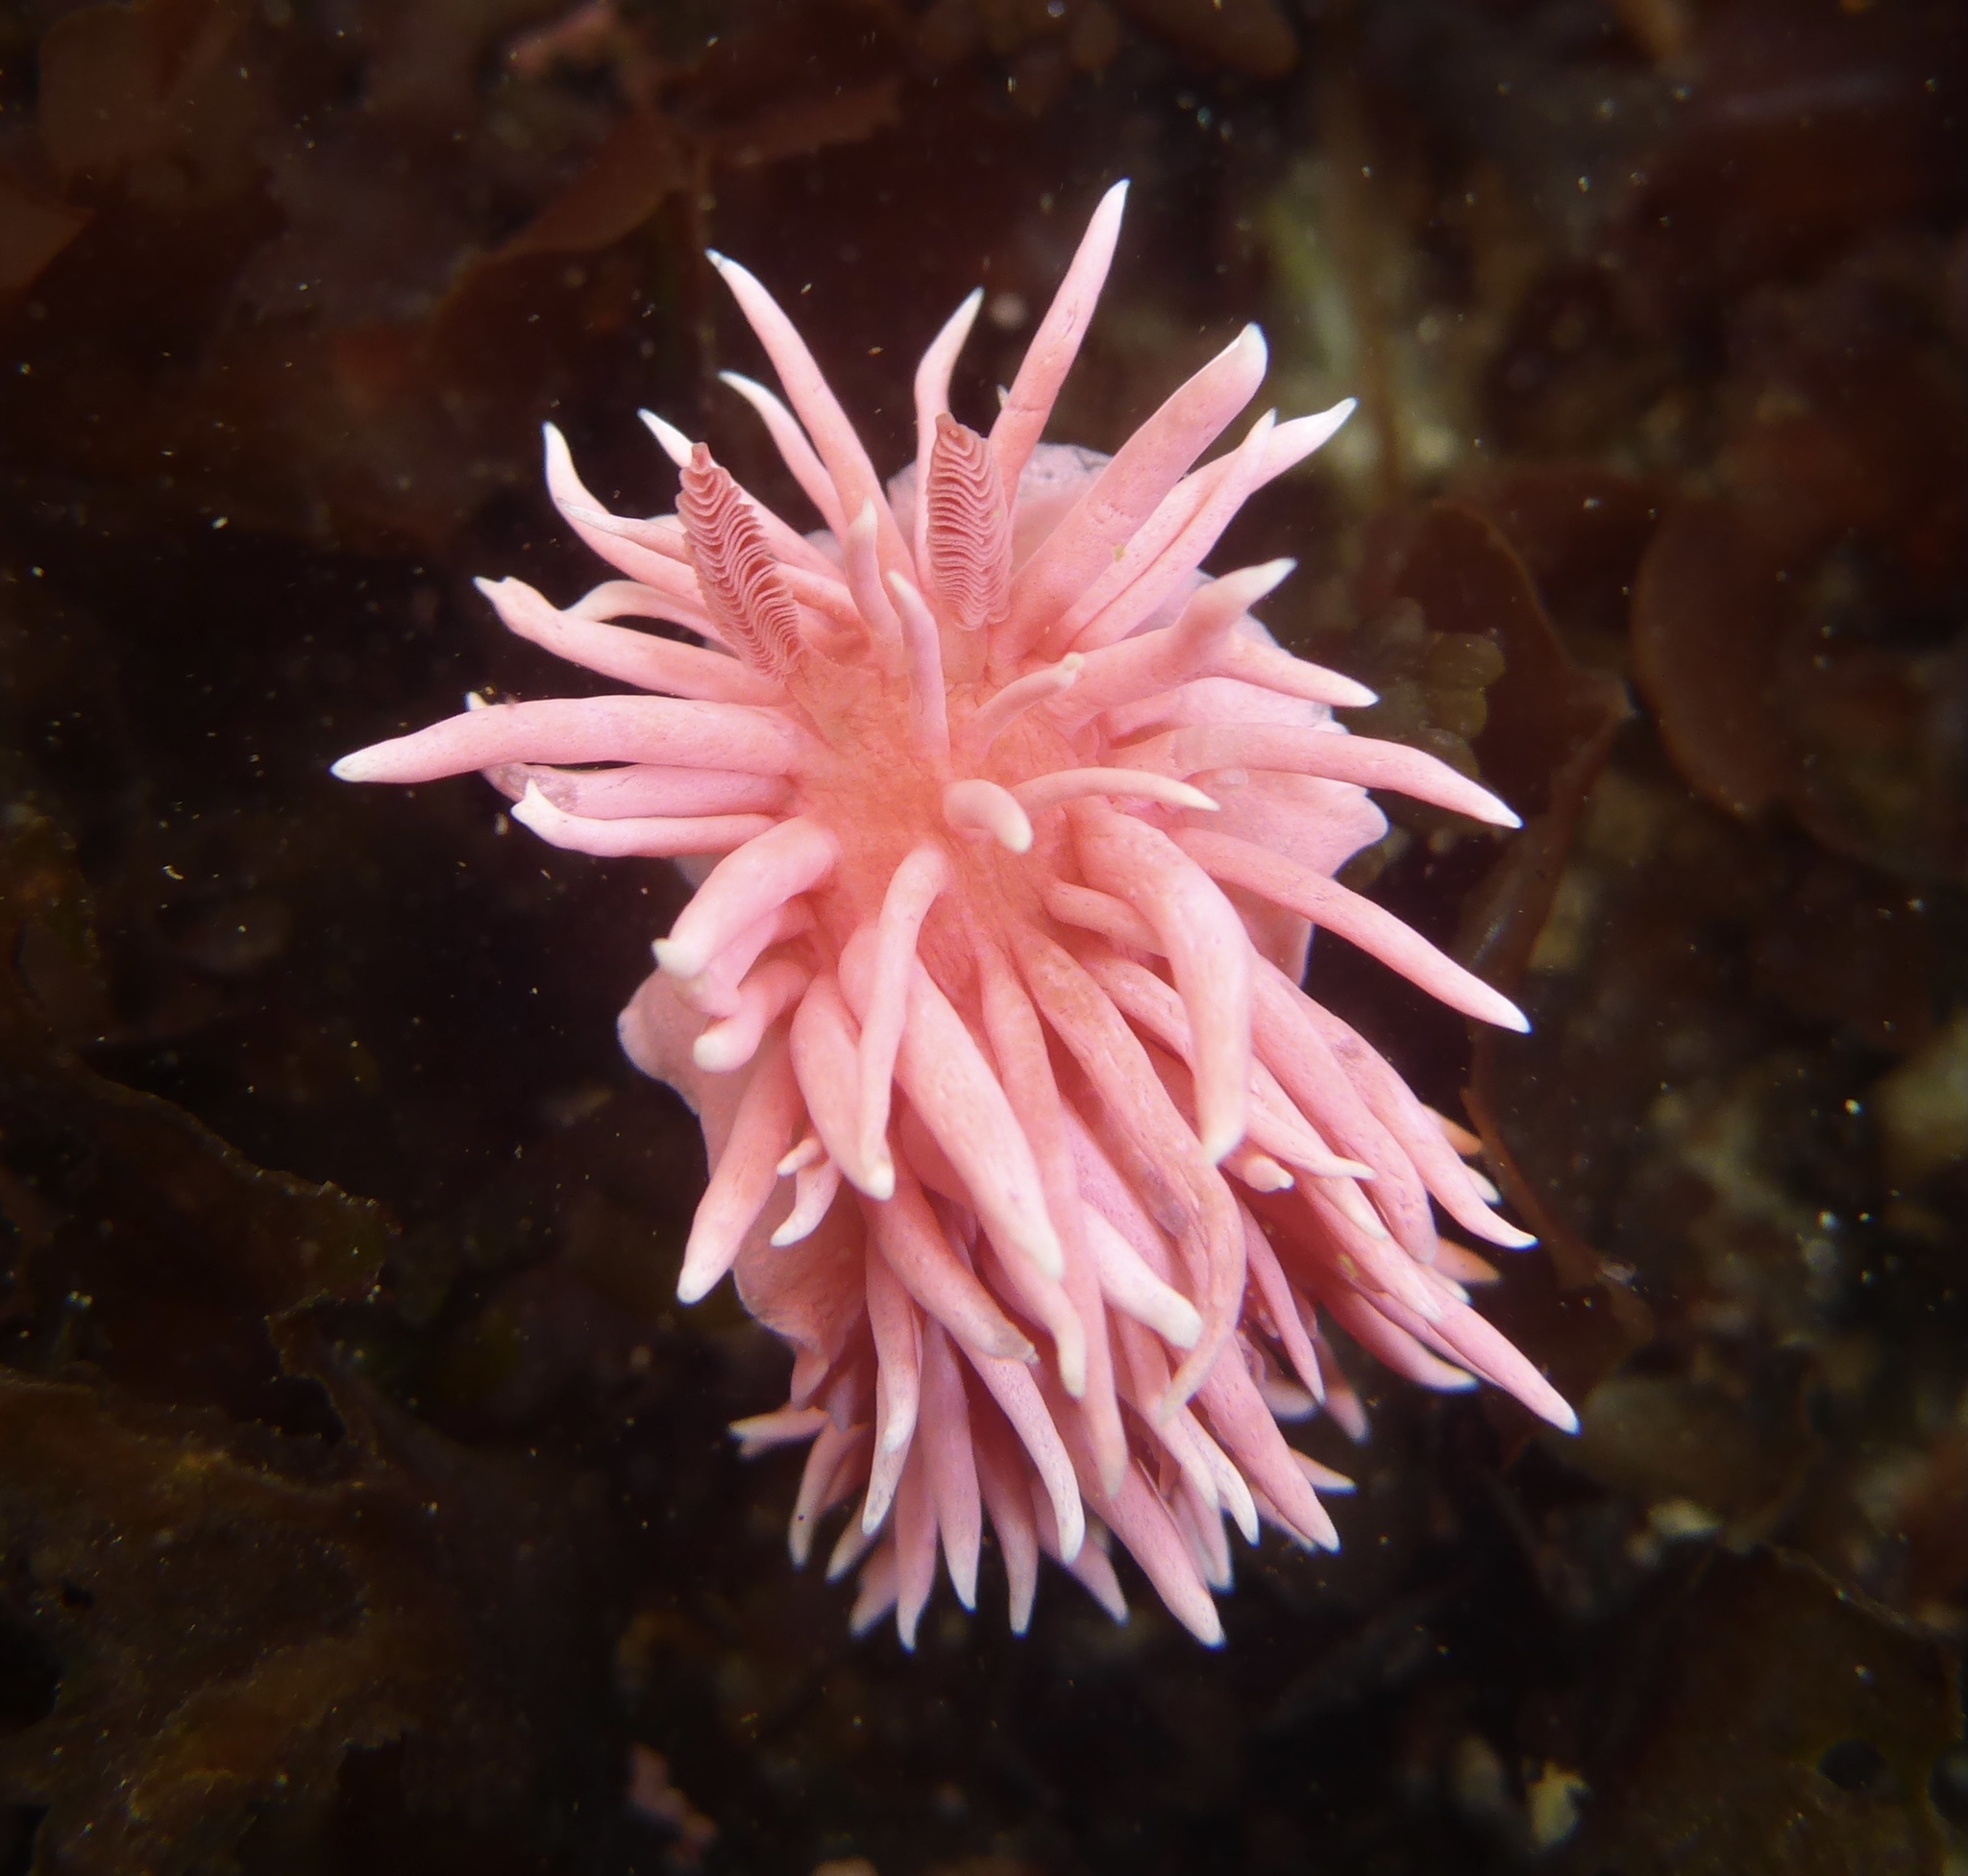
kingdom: Animalia
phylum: Mollusca
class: Gastropoda
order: Nudibranchia
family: Goniodorididae
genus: Okenia
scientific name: Okenia
